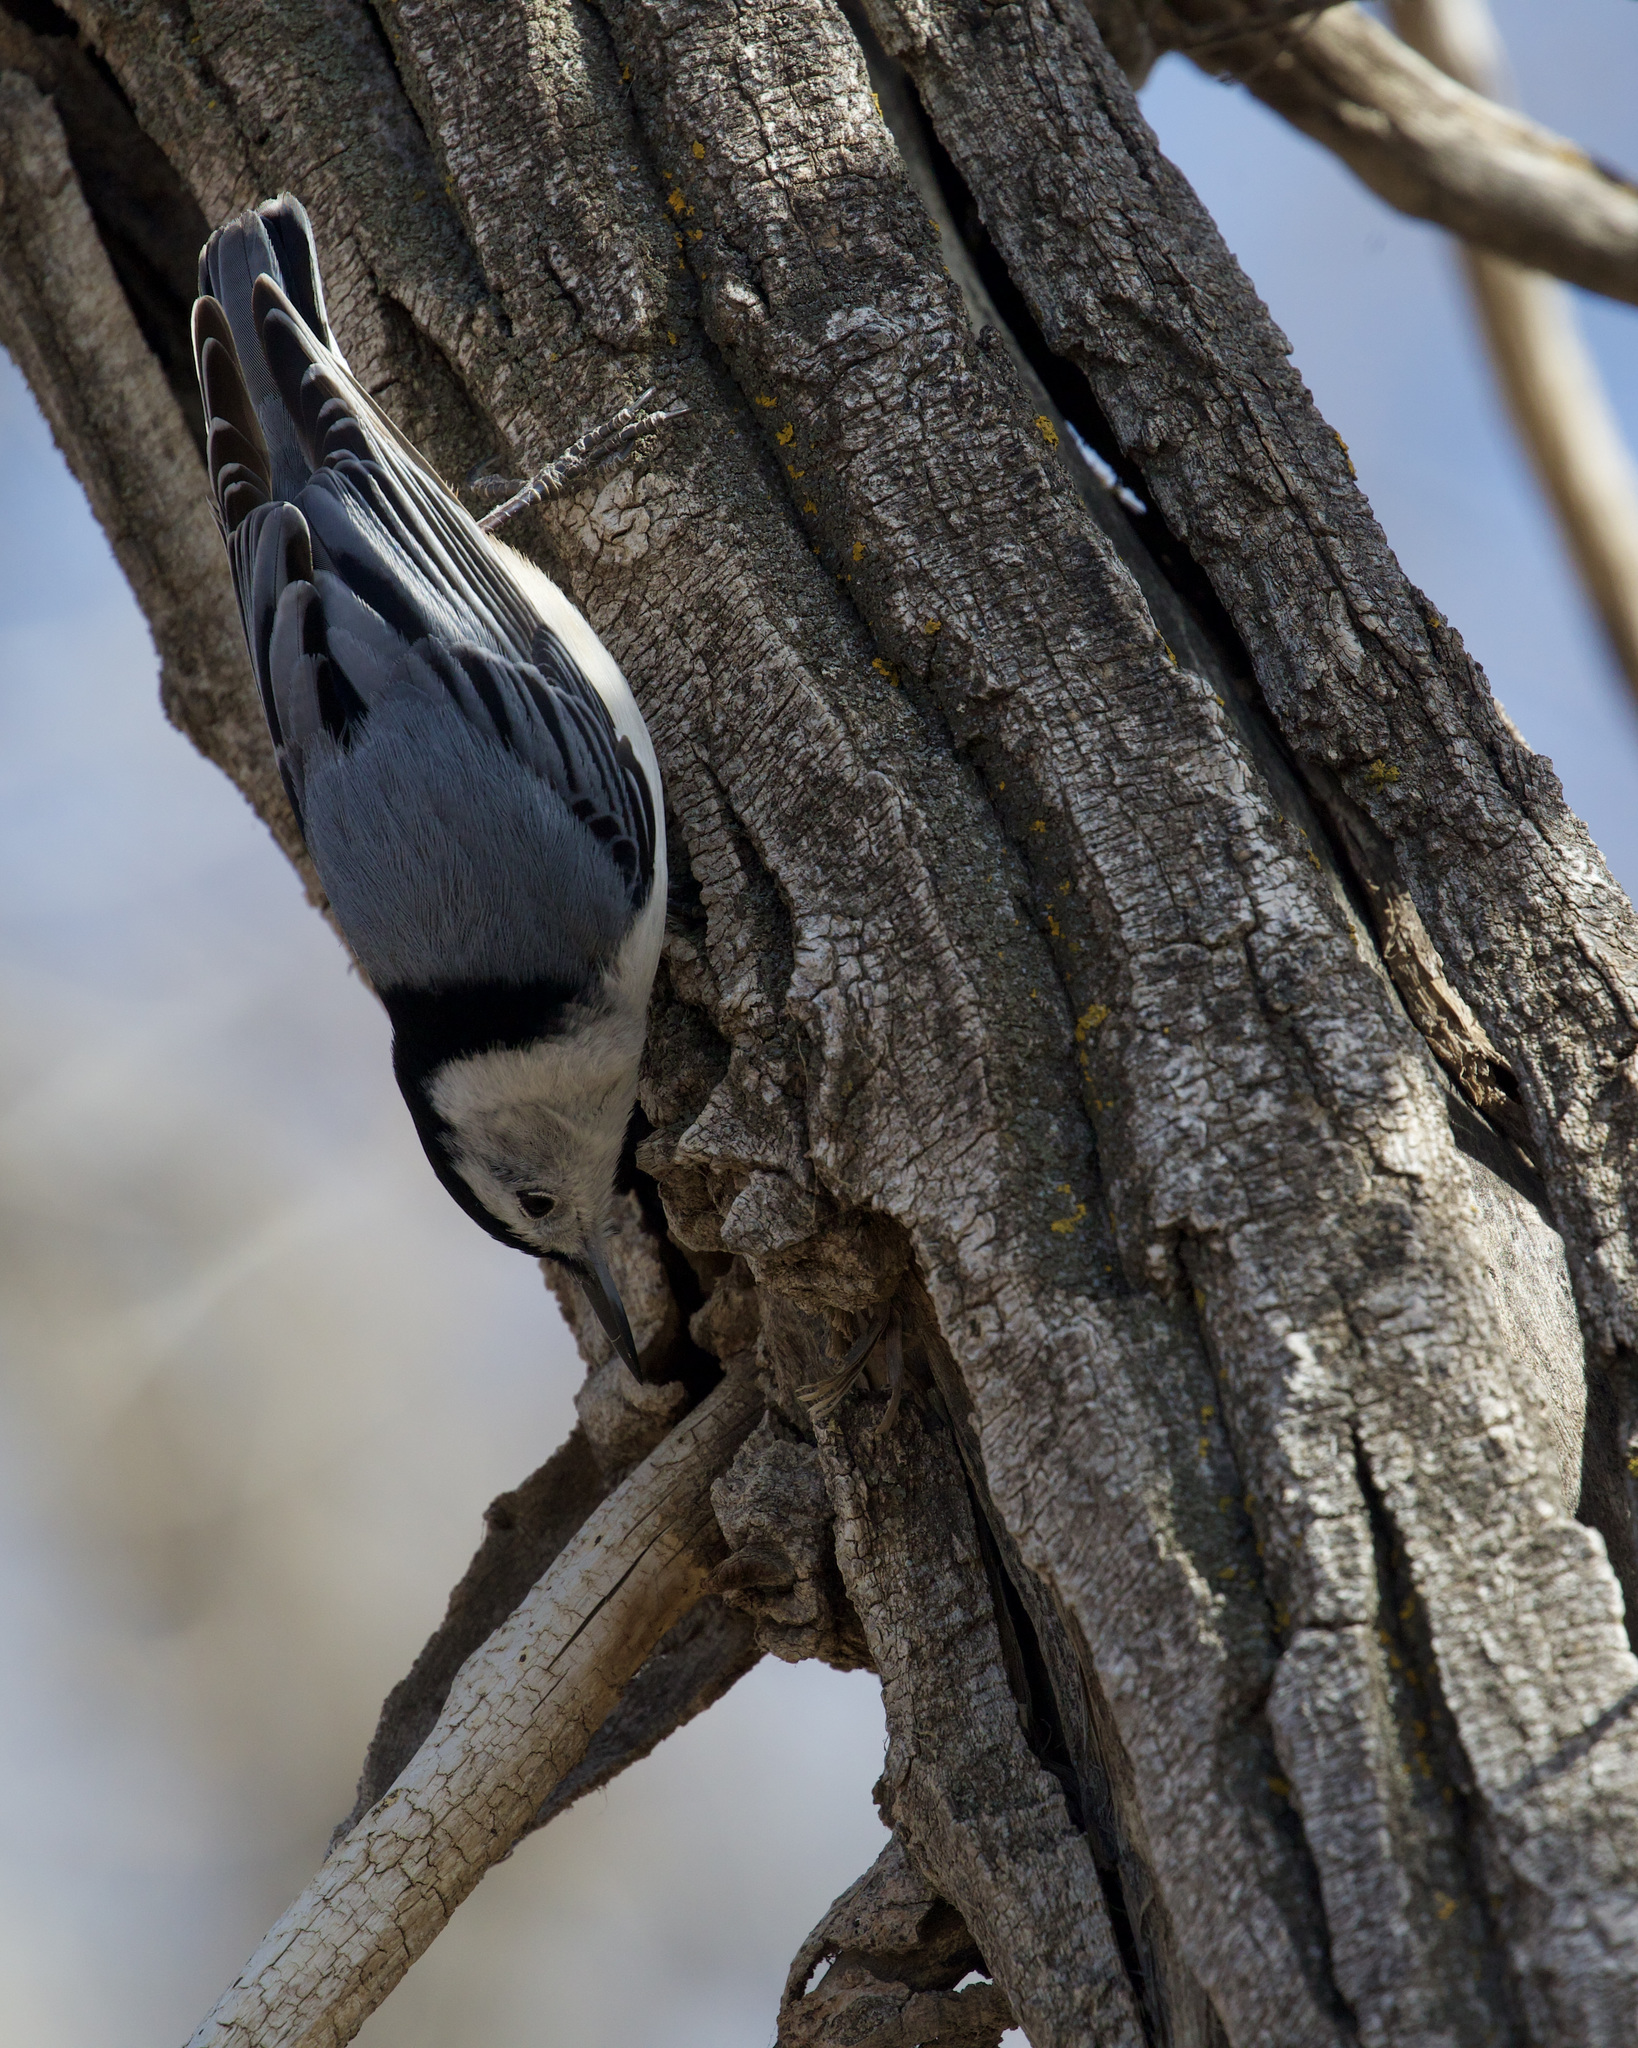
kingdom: Animalia
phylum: Chordata
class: Aves
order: Passeriformes
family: Sittidae
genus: Sitta
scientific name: Sitta carolinensis
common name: White-breasted nuthatch
